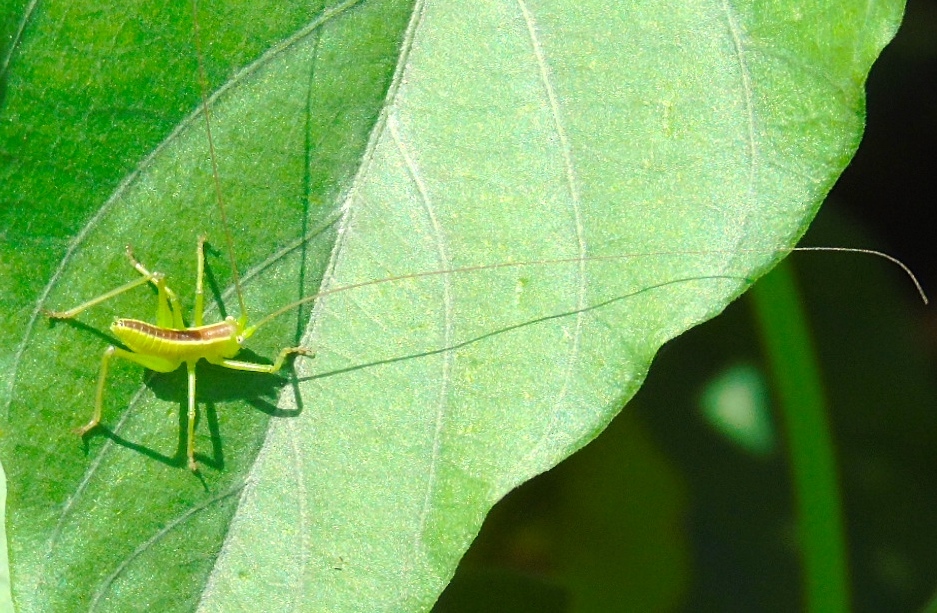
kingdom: Animalia
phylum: Arthropoda
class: Insecta
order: Orthoptera
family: Tettigoniidae
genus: Neobarrettia
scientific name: Neobarrettia sinaloae
